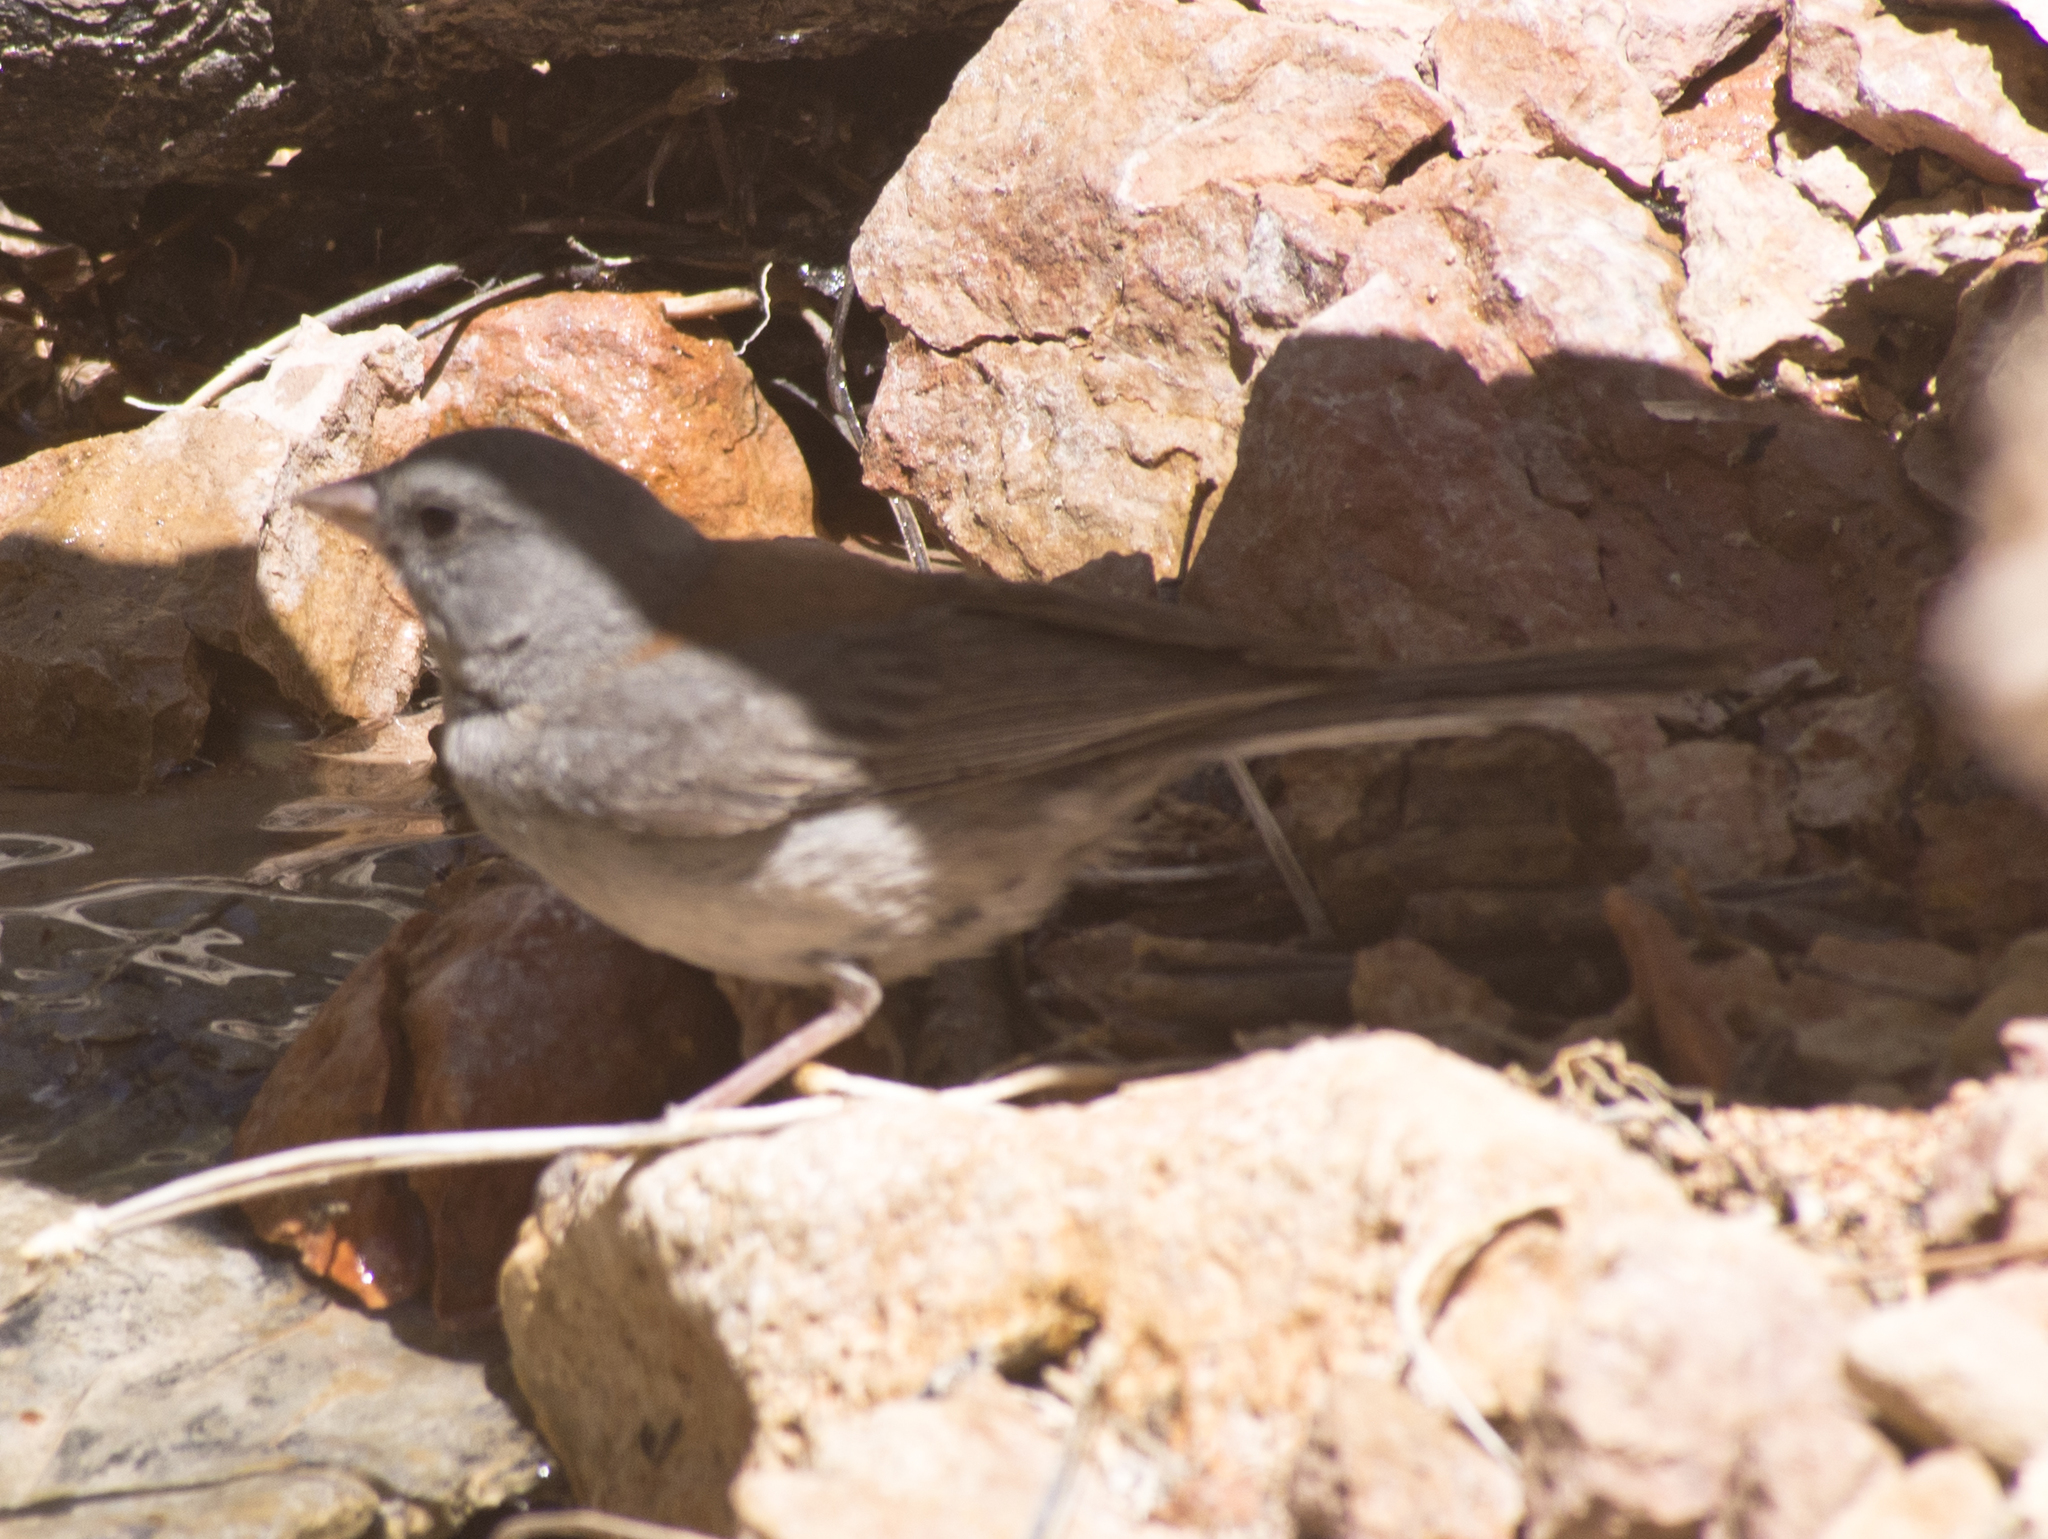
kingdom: Animalia
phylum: Chordata
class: Aves
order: Passeriformes
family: Passerellidae
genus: Junco
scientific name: Junco hyemalis
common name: Dark-eyed junco
